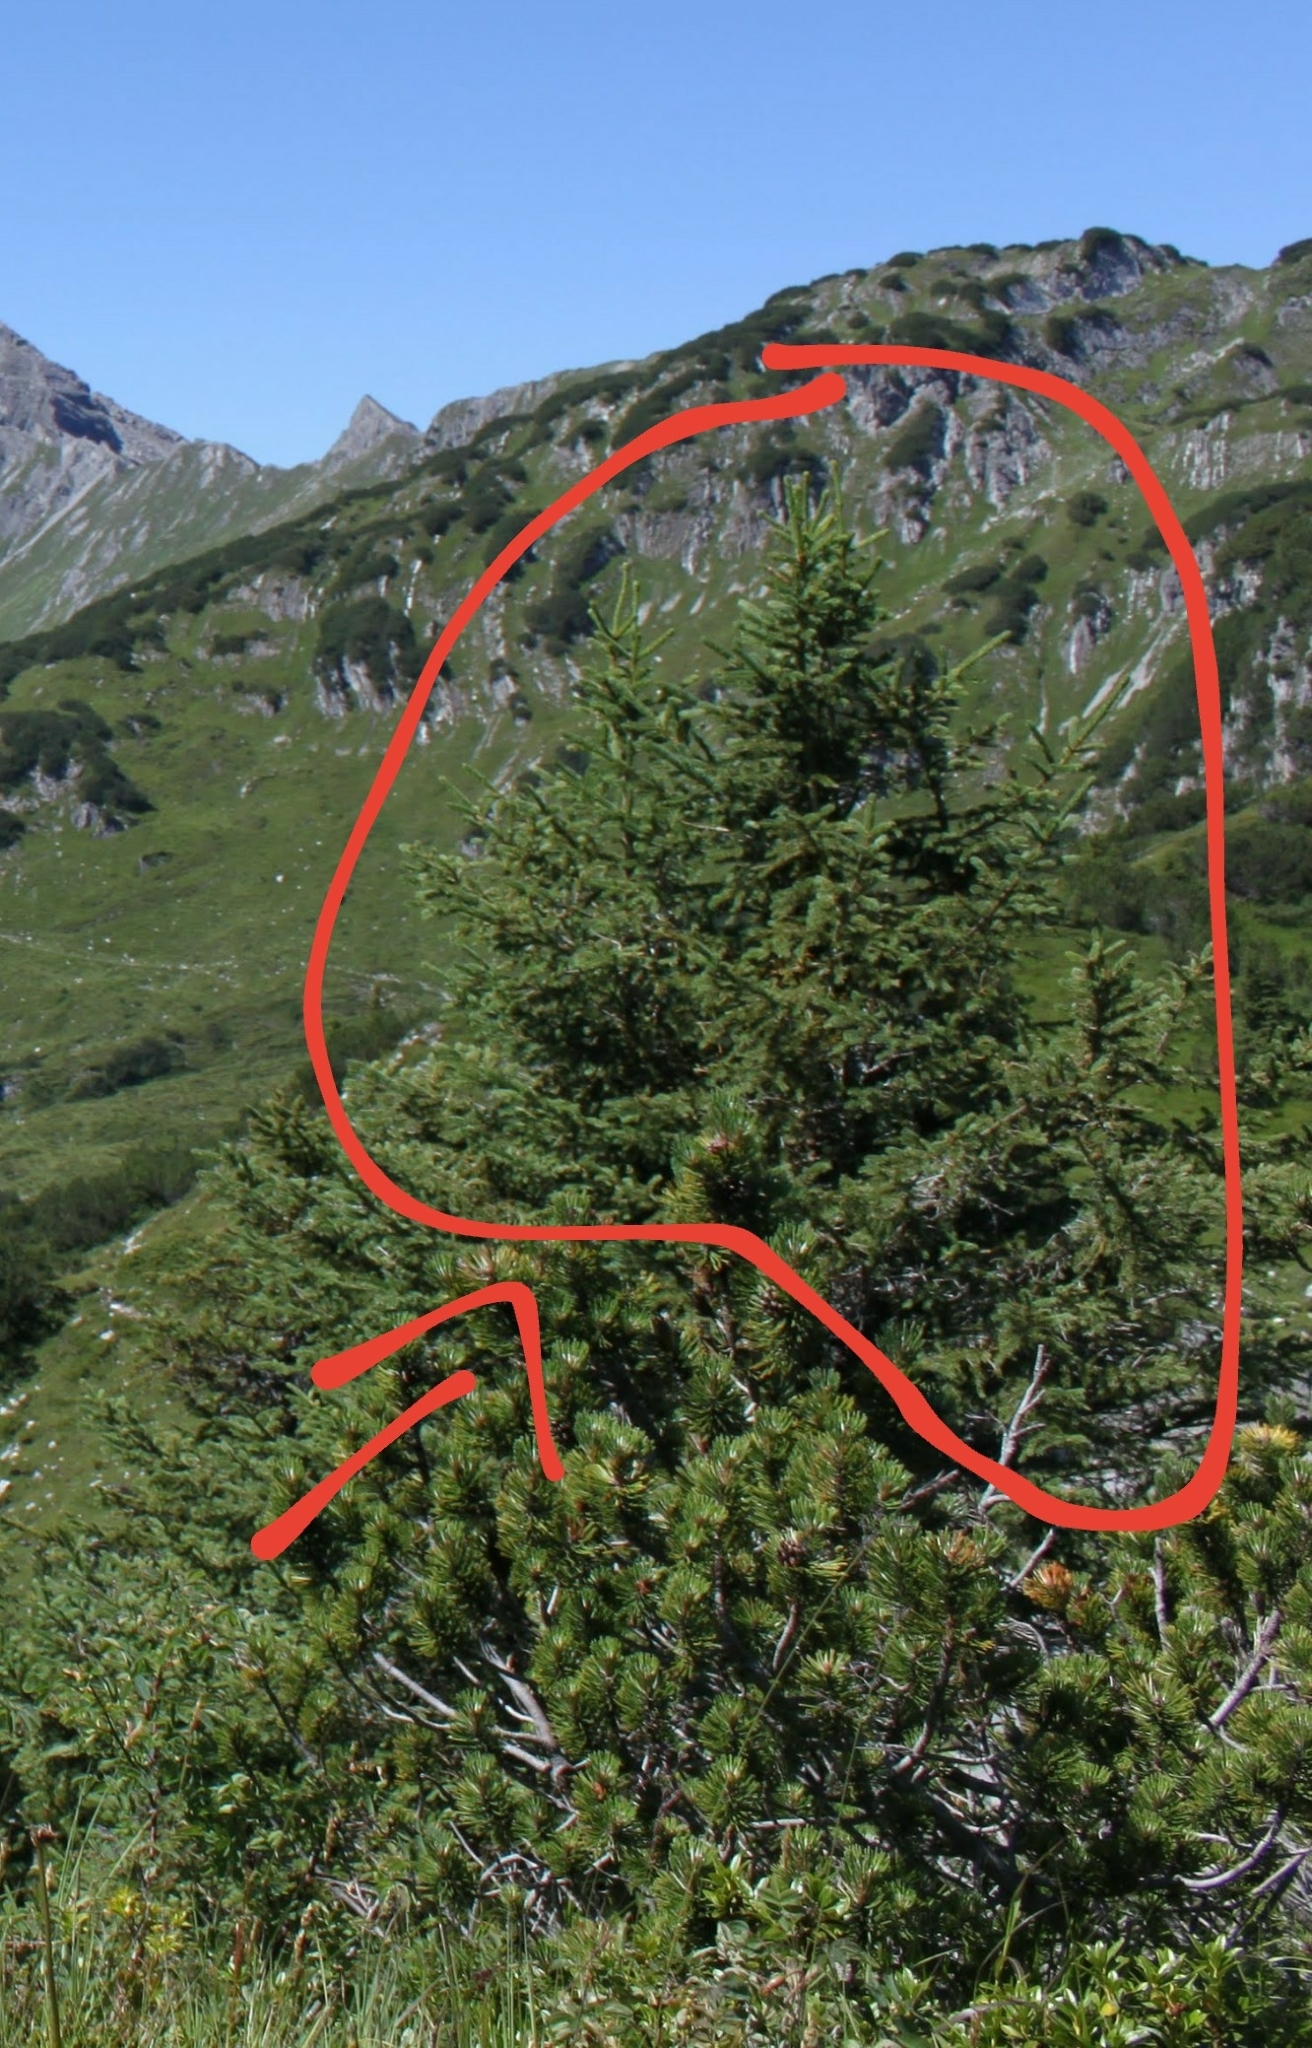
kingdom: Plantae
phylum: Tracheophyta
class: Pinopsida
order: Pinales
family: Pinaceae
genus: Picea
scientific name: Picea abies
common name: Norway spruce
